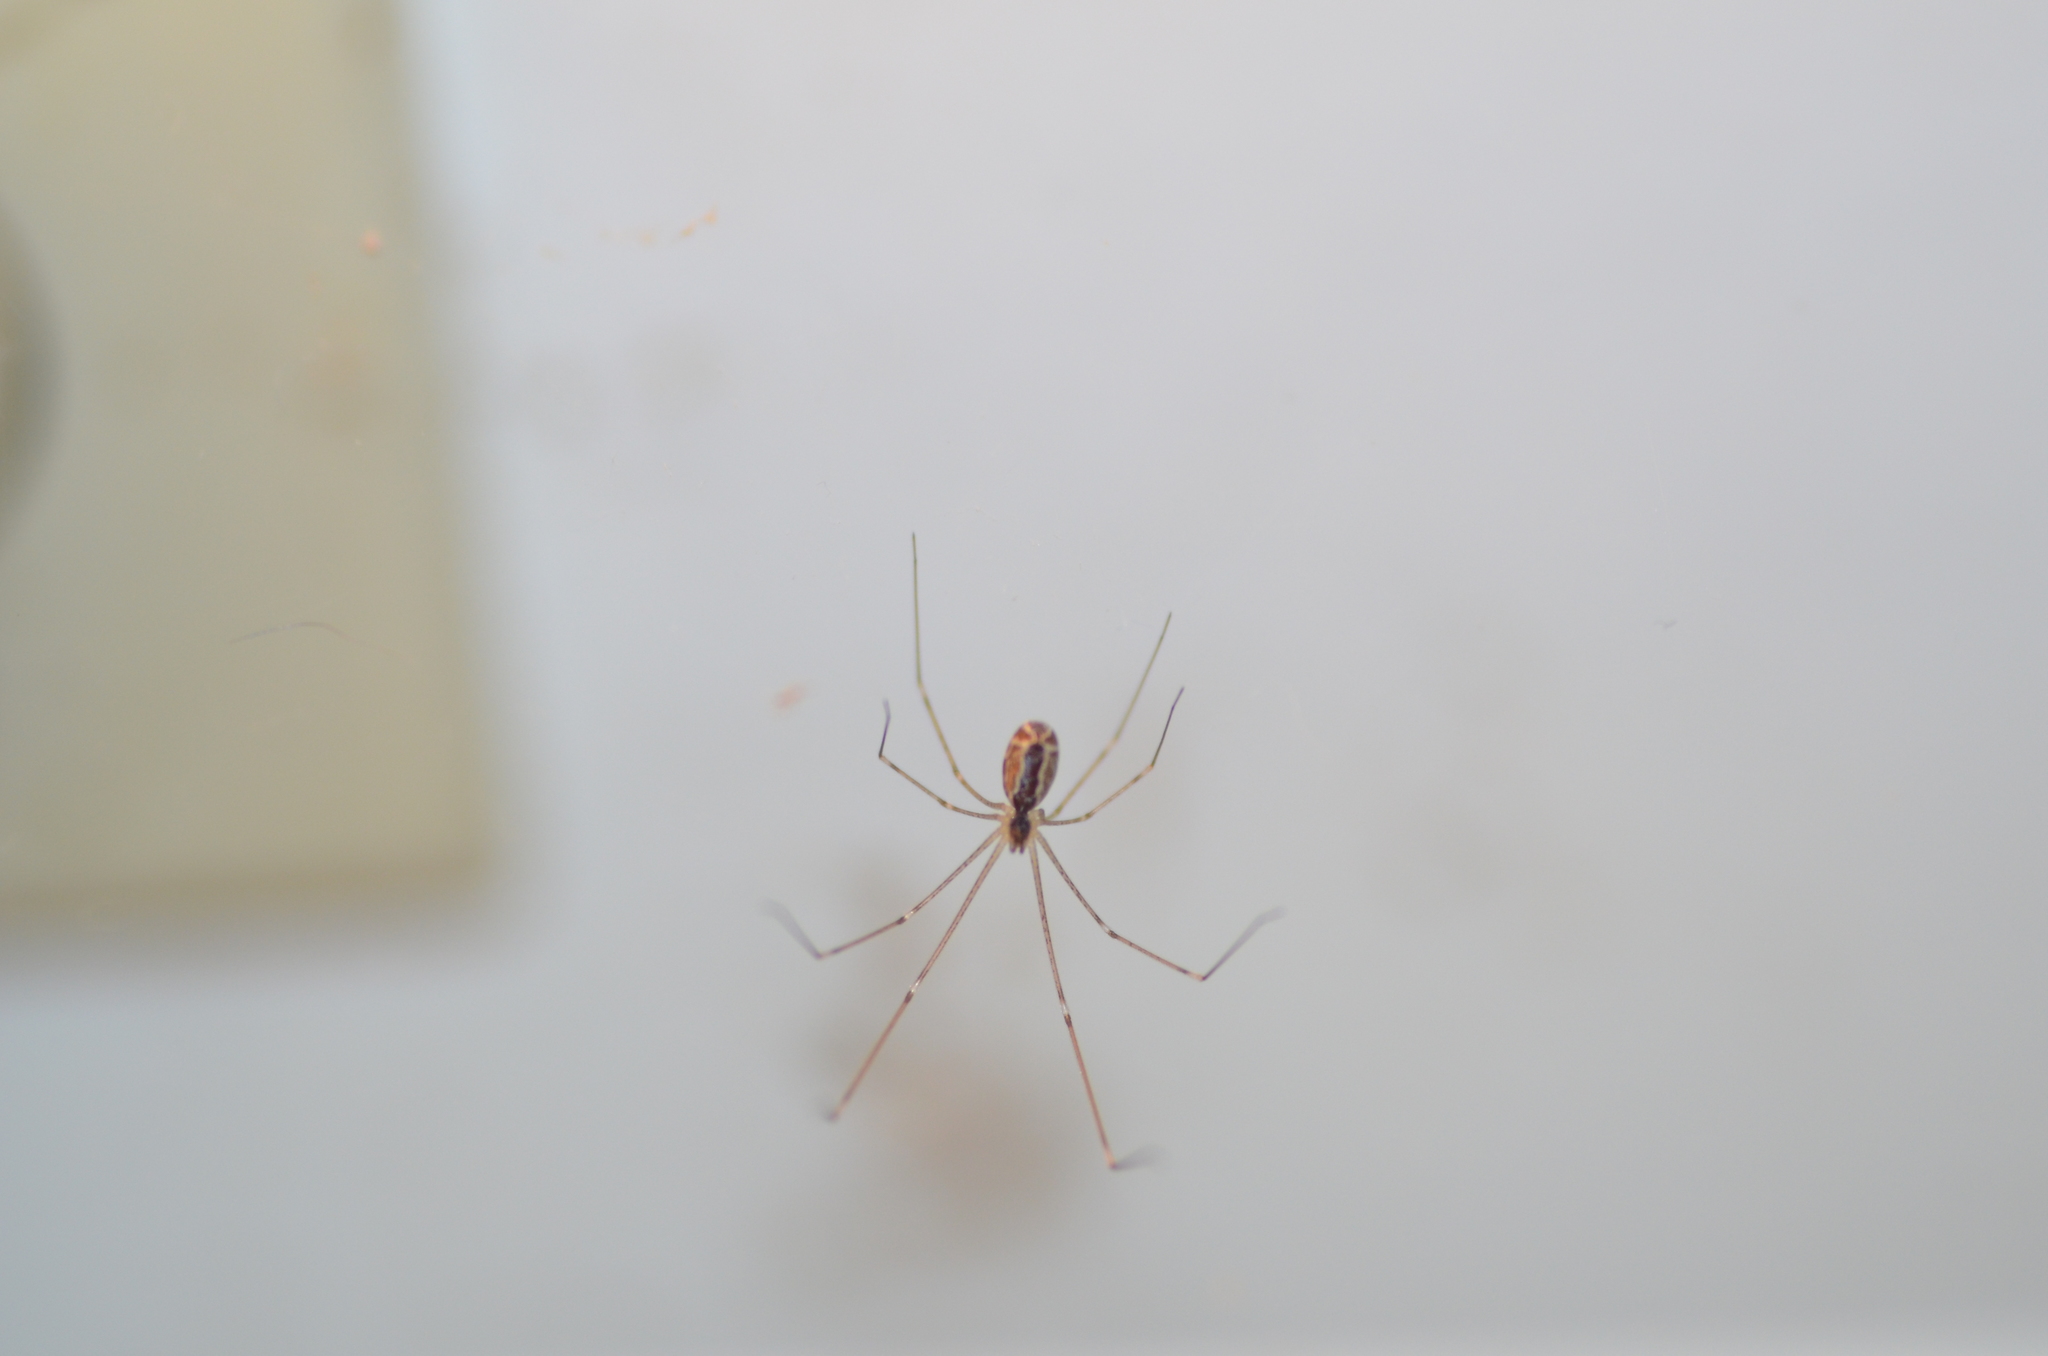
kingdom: Animalia
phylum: Arthropoda
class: Arachnida
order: Araneae
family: Pholcidae
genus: Holocnemus
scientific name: Holocnemus pluchei
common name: Marbled cellar spider
